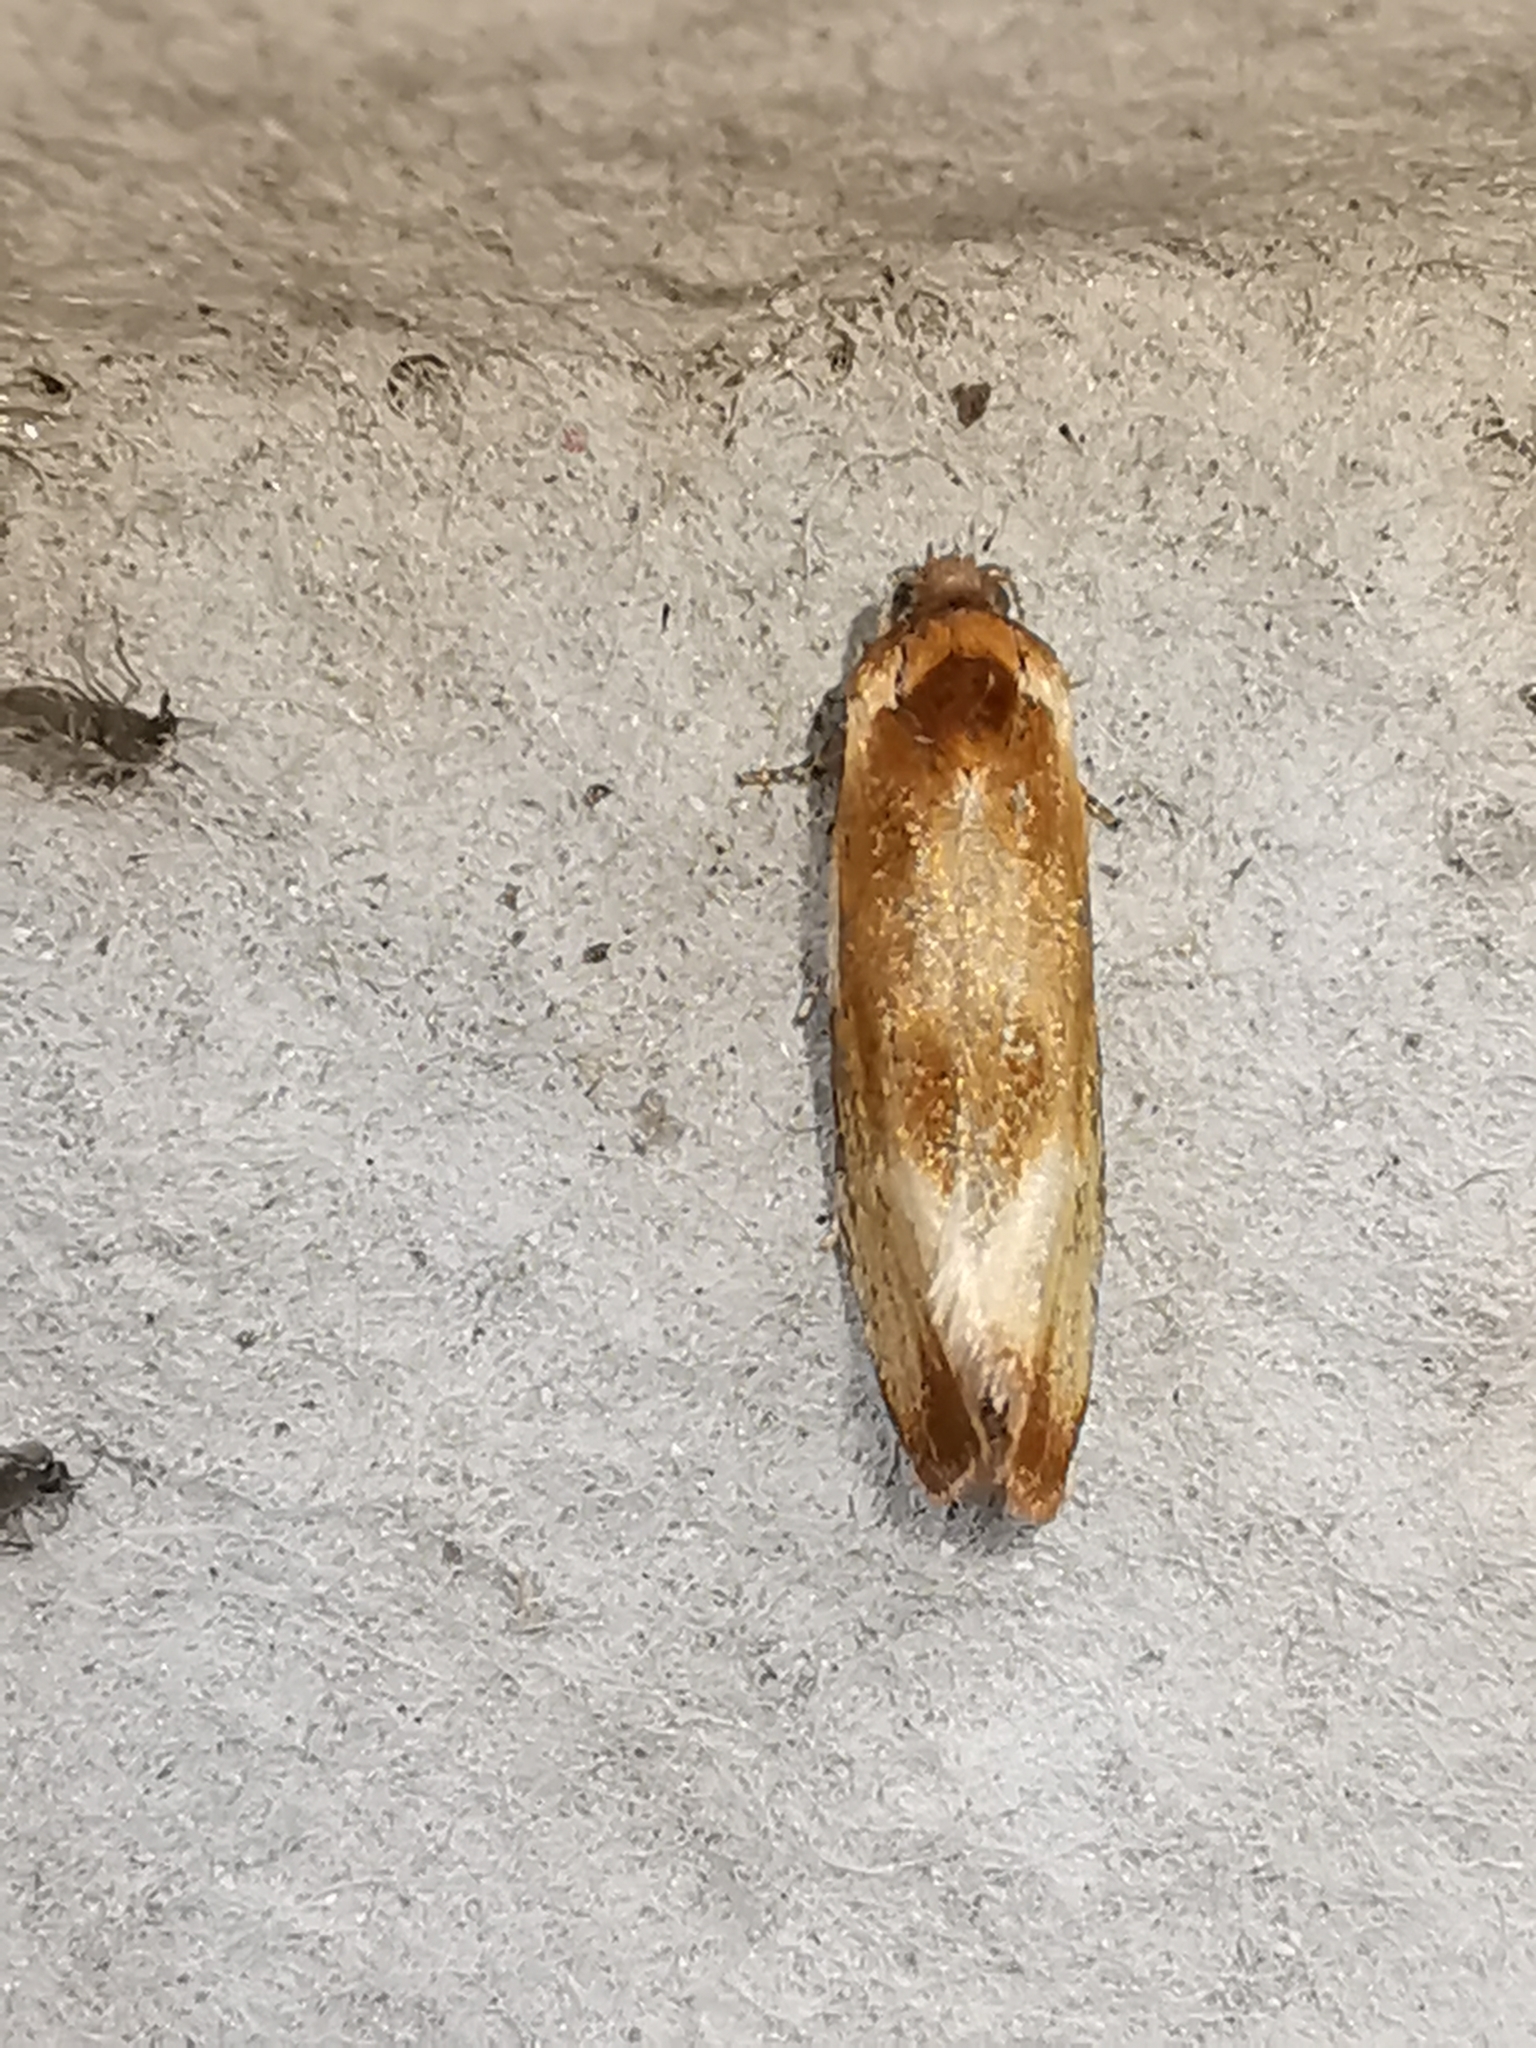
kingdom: Animalia
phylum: Arthropoda
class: Insecta
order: Lepidoptera
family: Tortricidae
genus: Eulia
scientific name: Eulia ministrana
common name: Brassy twist
